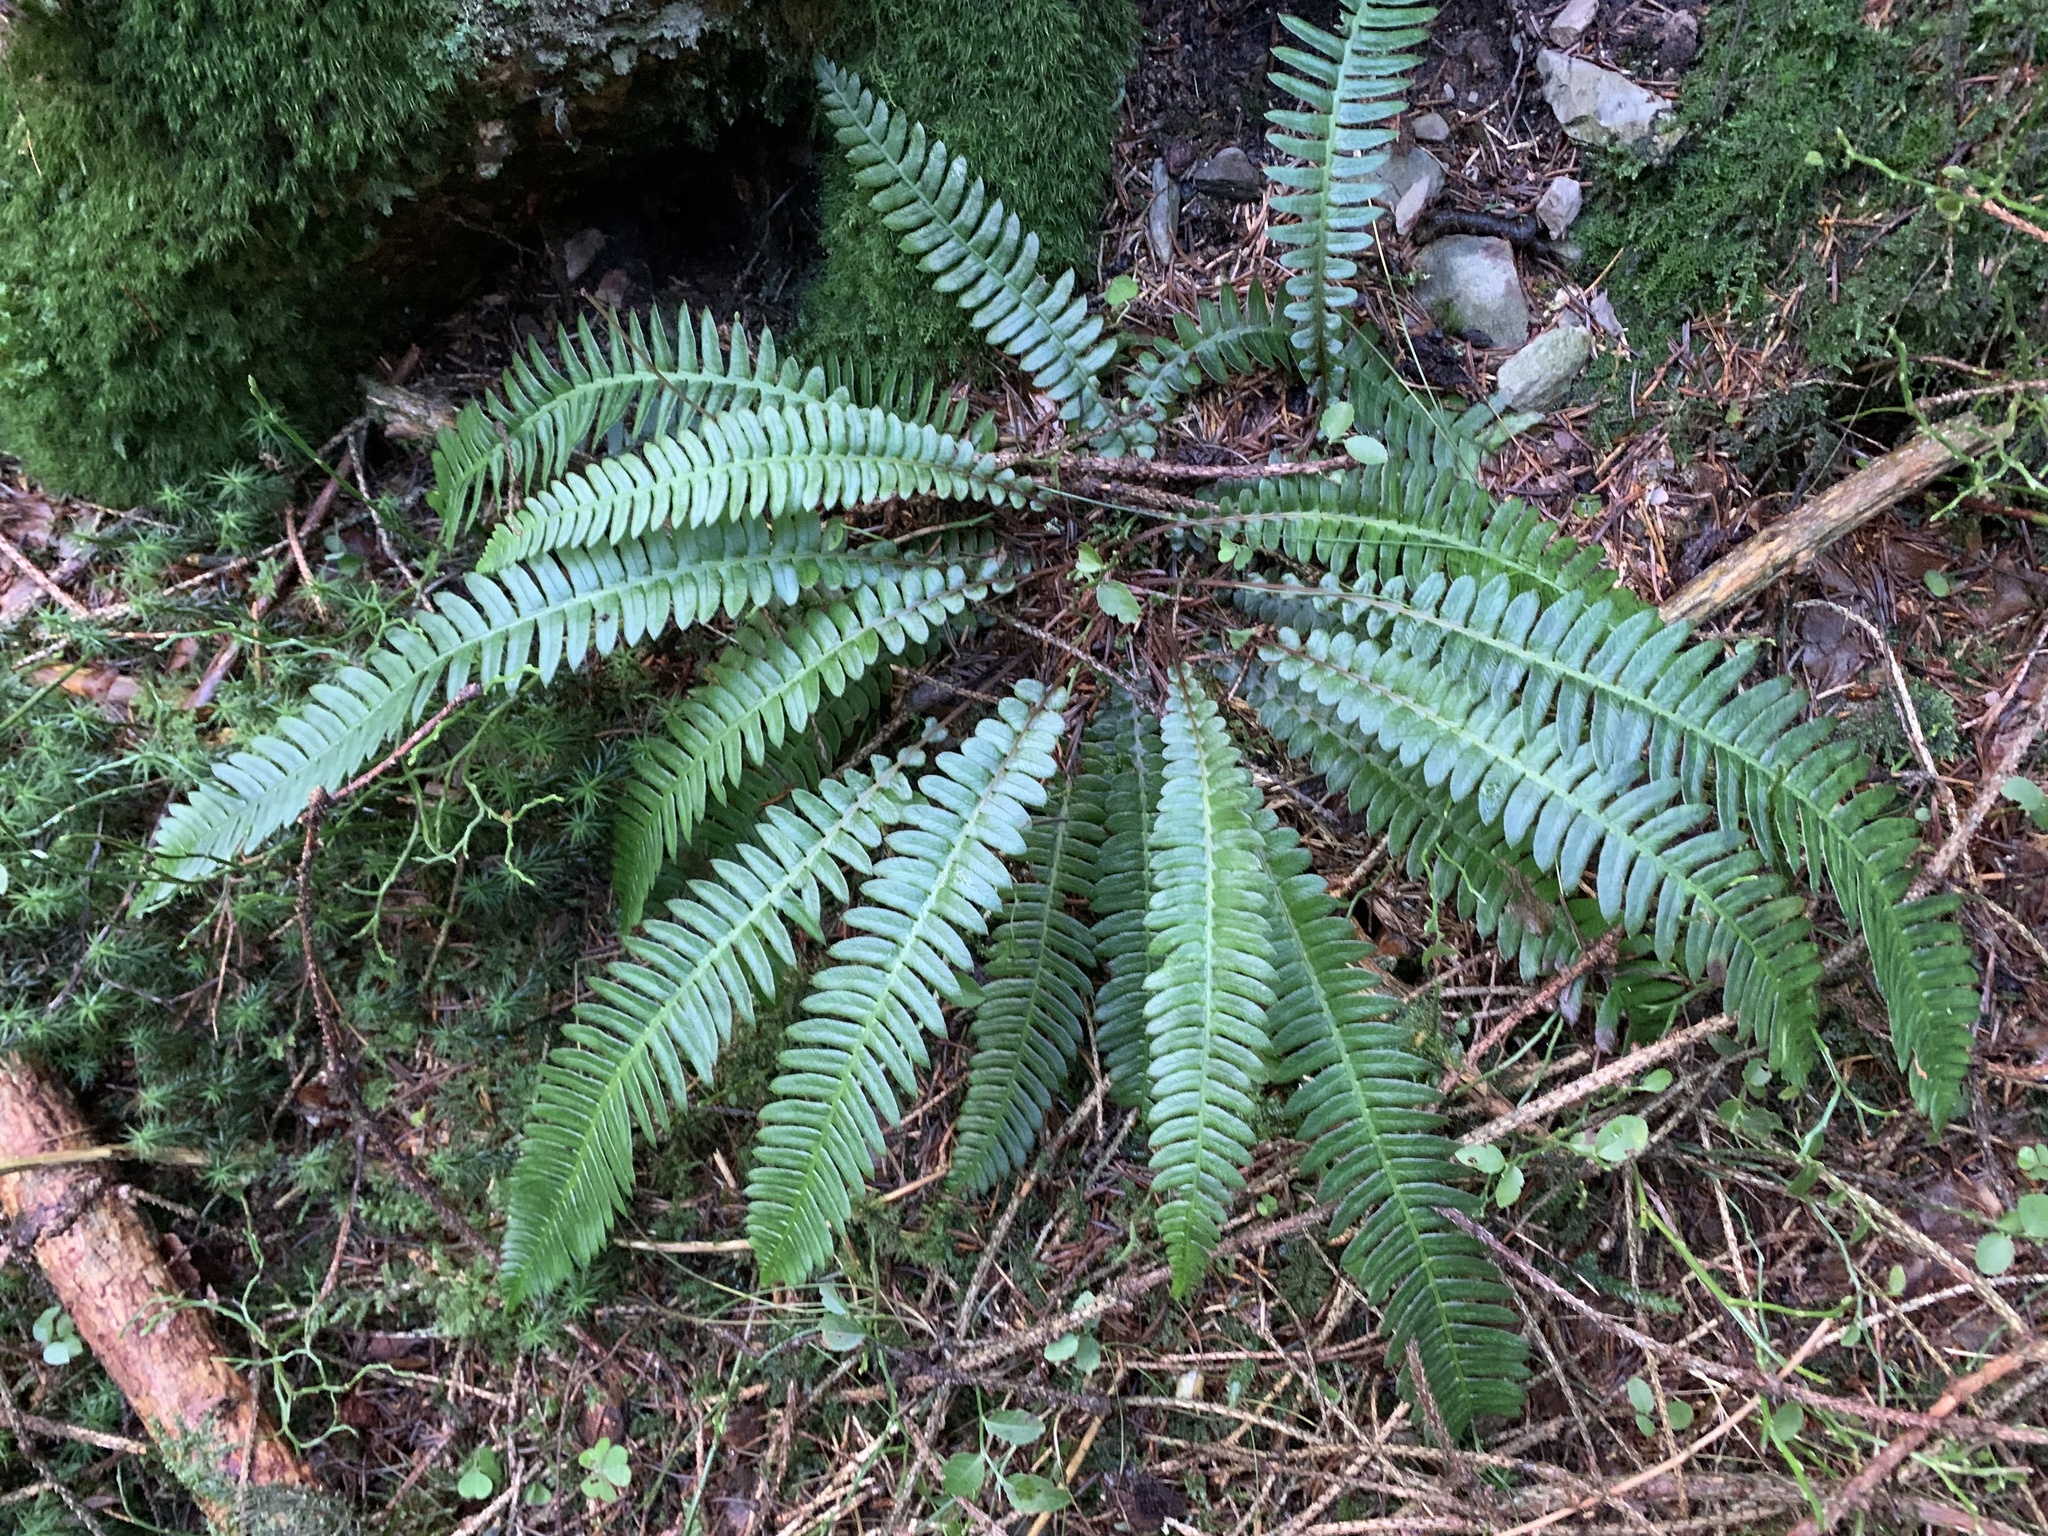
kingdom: Plantae
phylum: Tracheophyta
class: Polypodiopsida
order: Polypodiales
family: Blechnaceae
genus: Struthiopteris
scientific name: Struthiopteris spicant
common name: Deer fern
